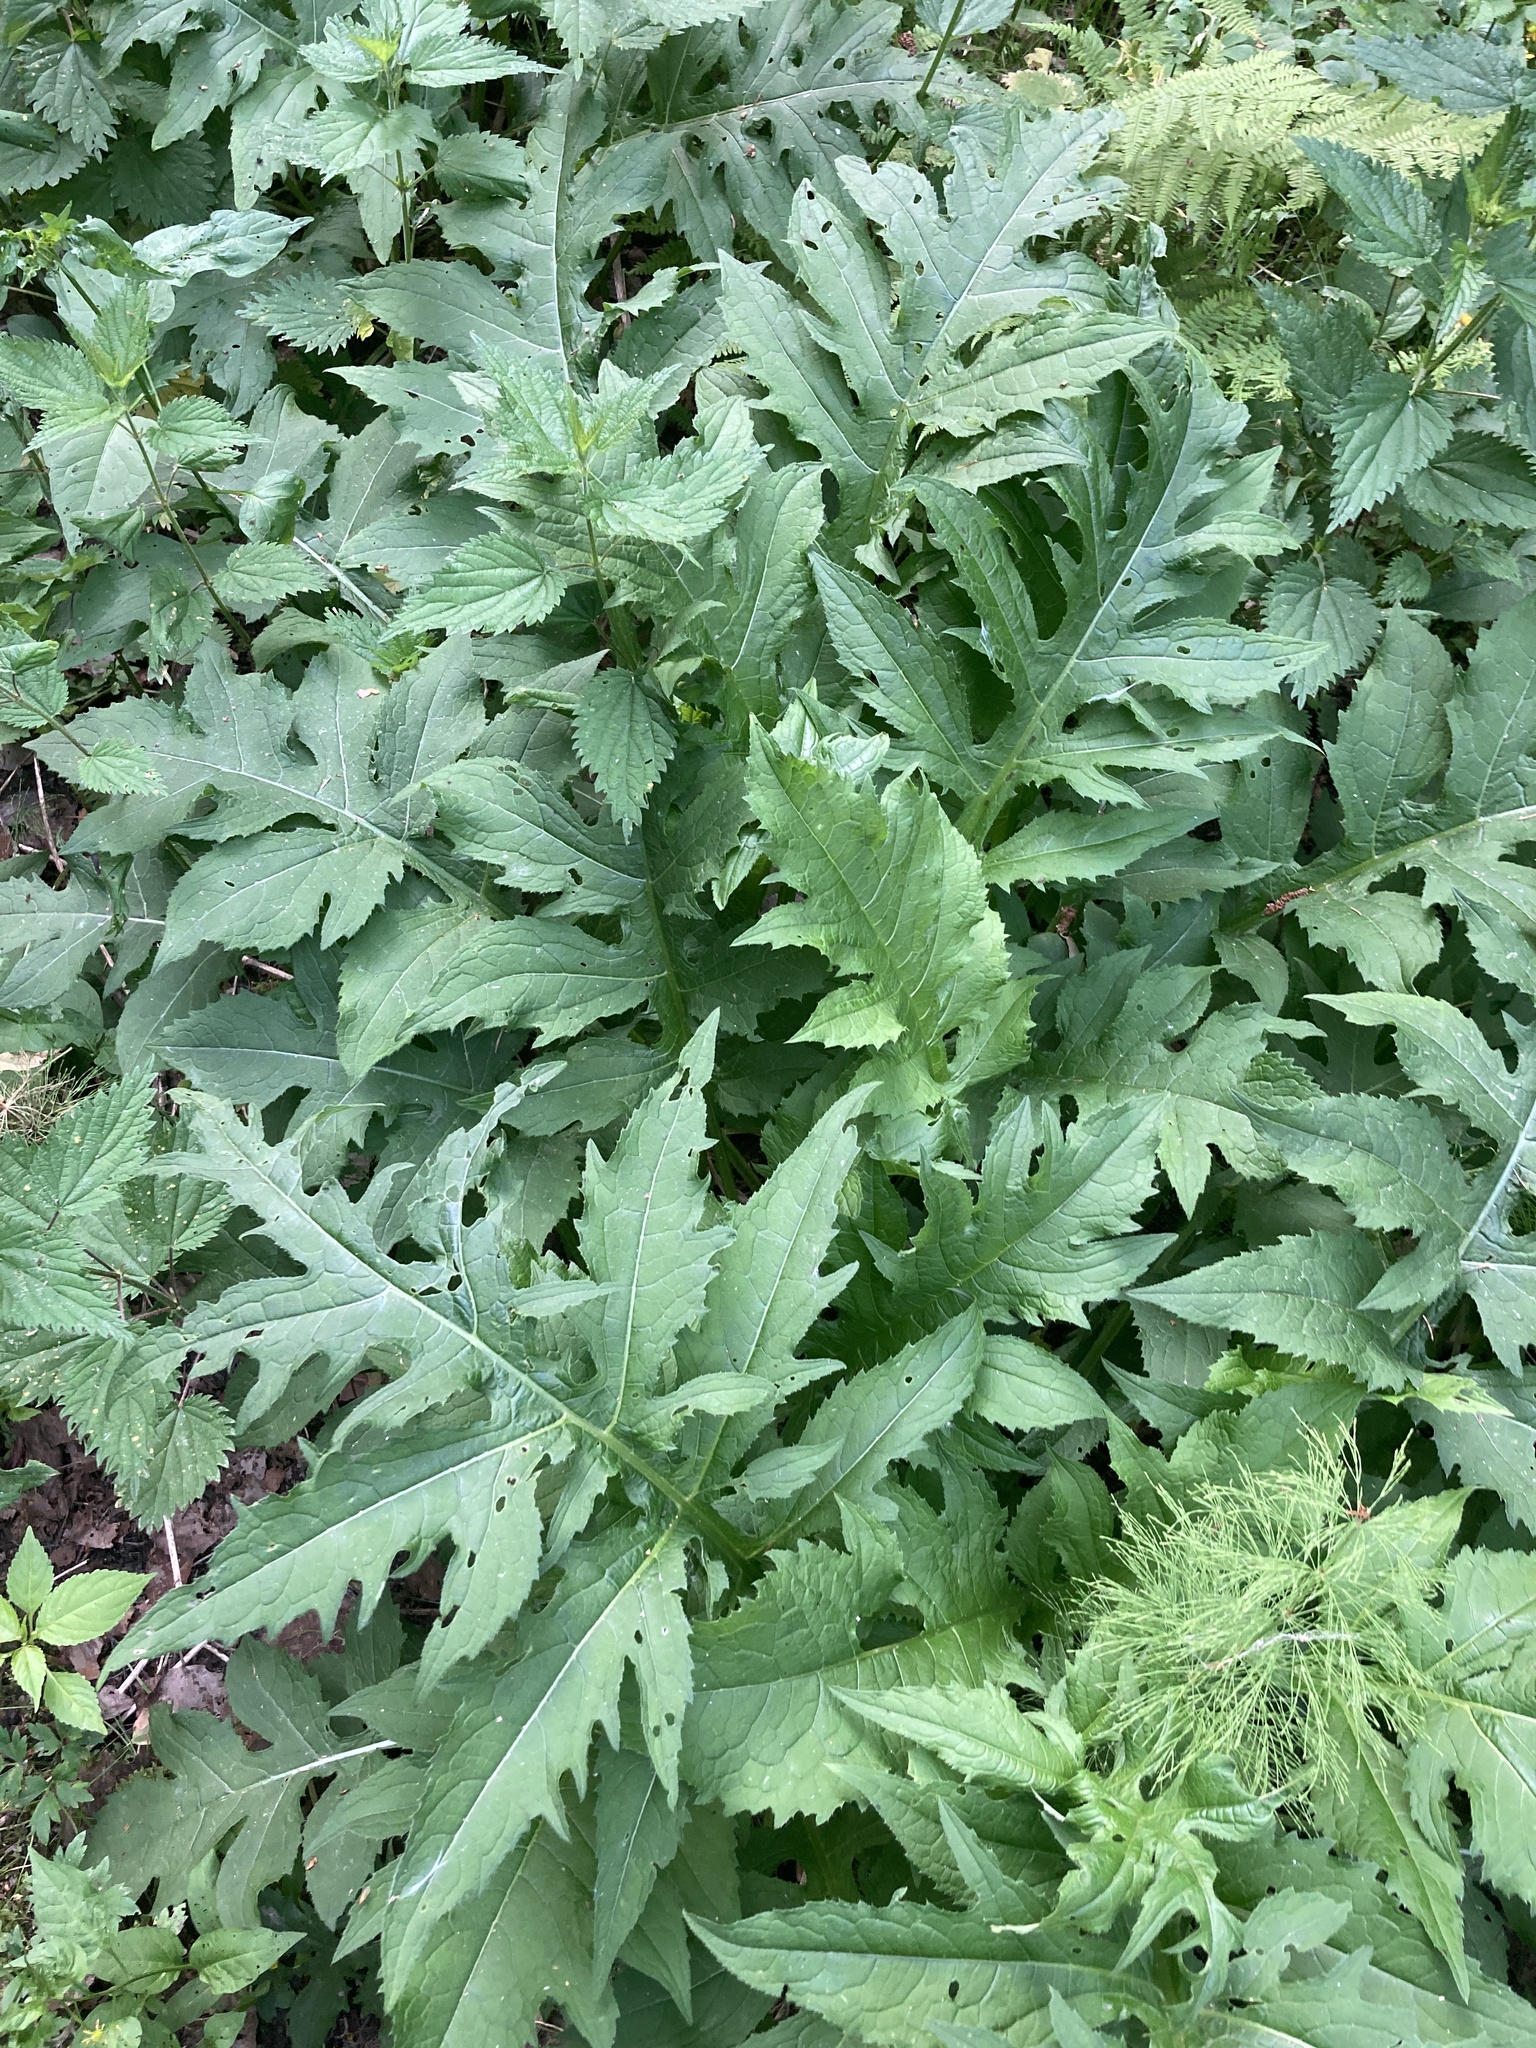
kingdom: Plantae
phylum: Tracheophyta
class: Magnoliopsida
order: Asterales
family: Asteraceae
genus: Cirsium
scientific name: Cirsium oleraceum
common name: Cabbage thistle
